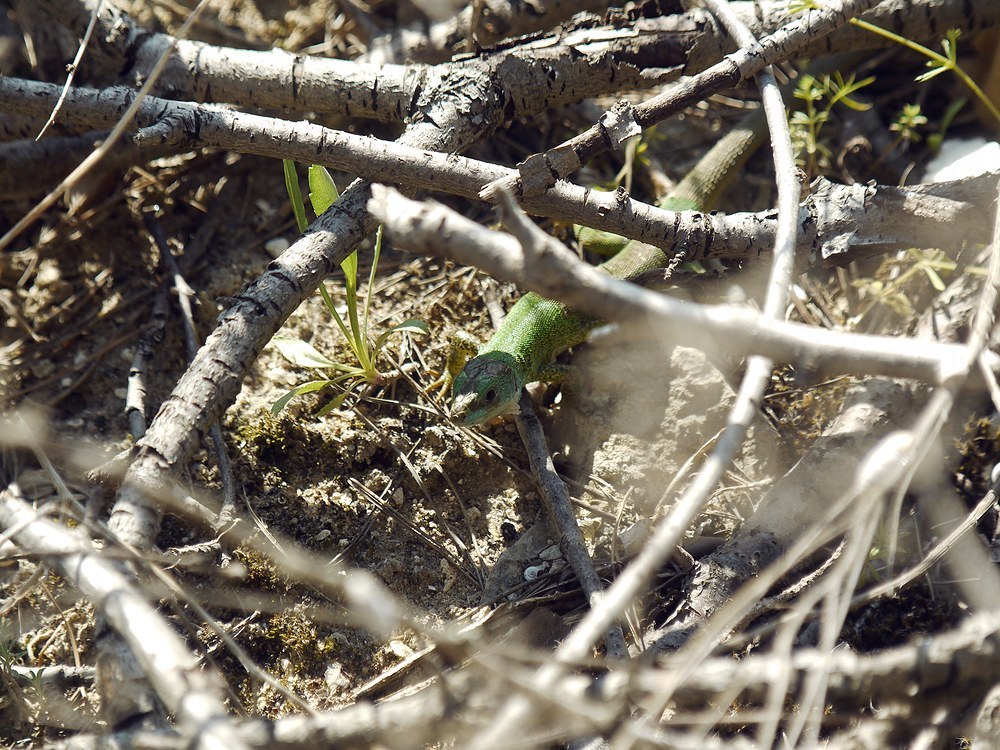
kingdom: Animalia
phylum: Chordata
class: Squamata
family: Lacertidae
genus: Lacerta
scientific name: Lacerta viridis
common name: European green lizard
